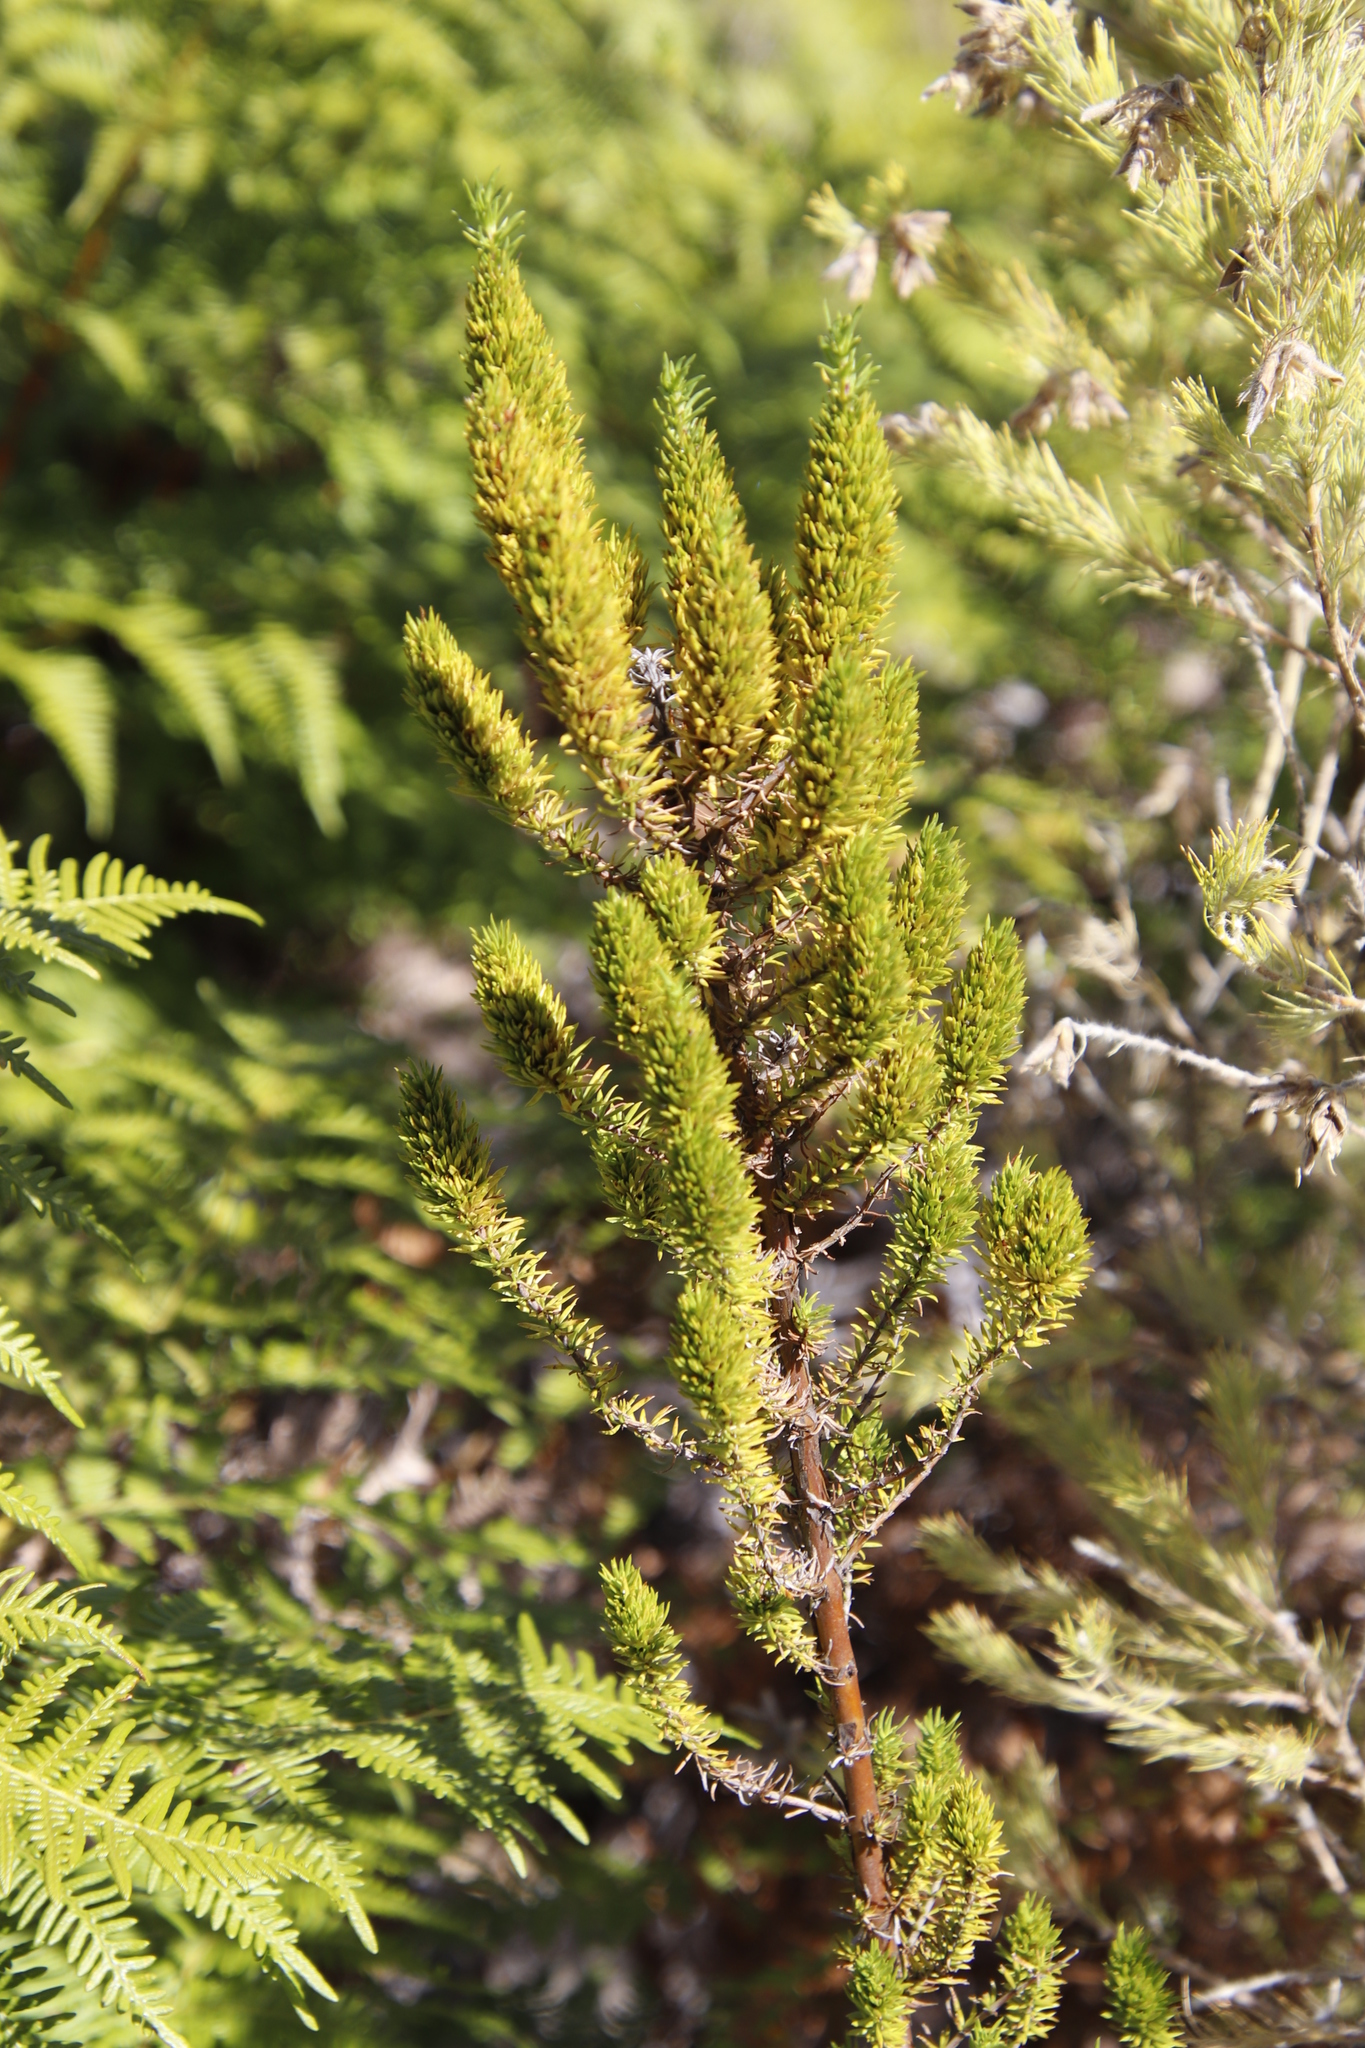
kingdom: Plantae
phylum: Tracheophyta
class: Magnoliopsida
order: Gentianales
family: Rubiaceae
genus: Anthospermum
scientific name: Anthospermum aethiopicum
